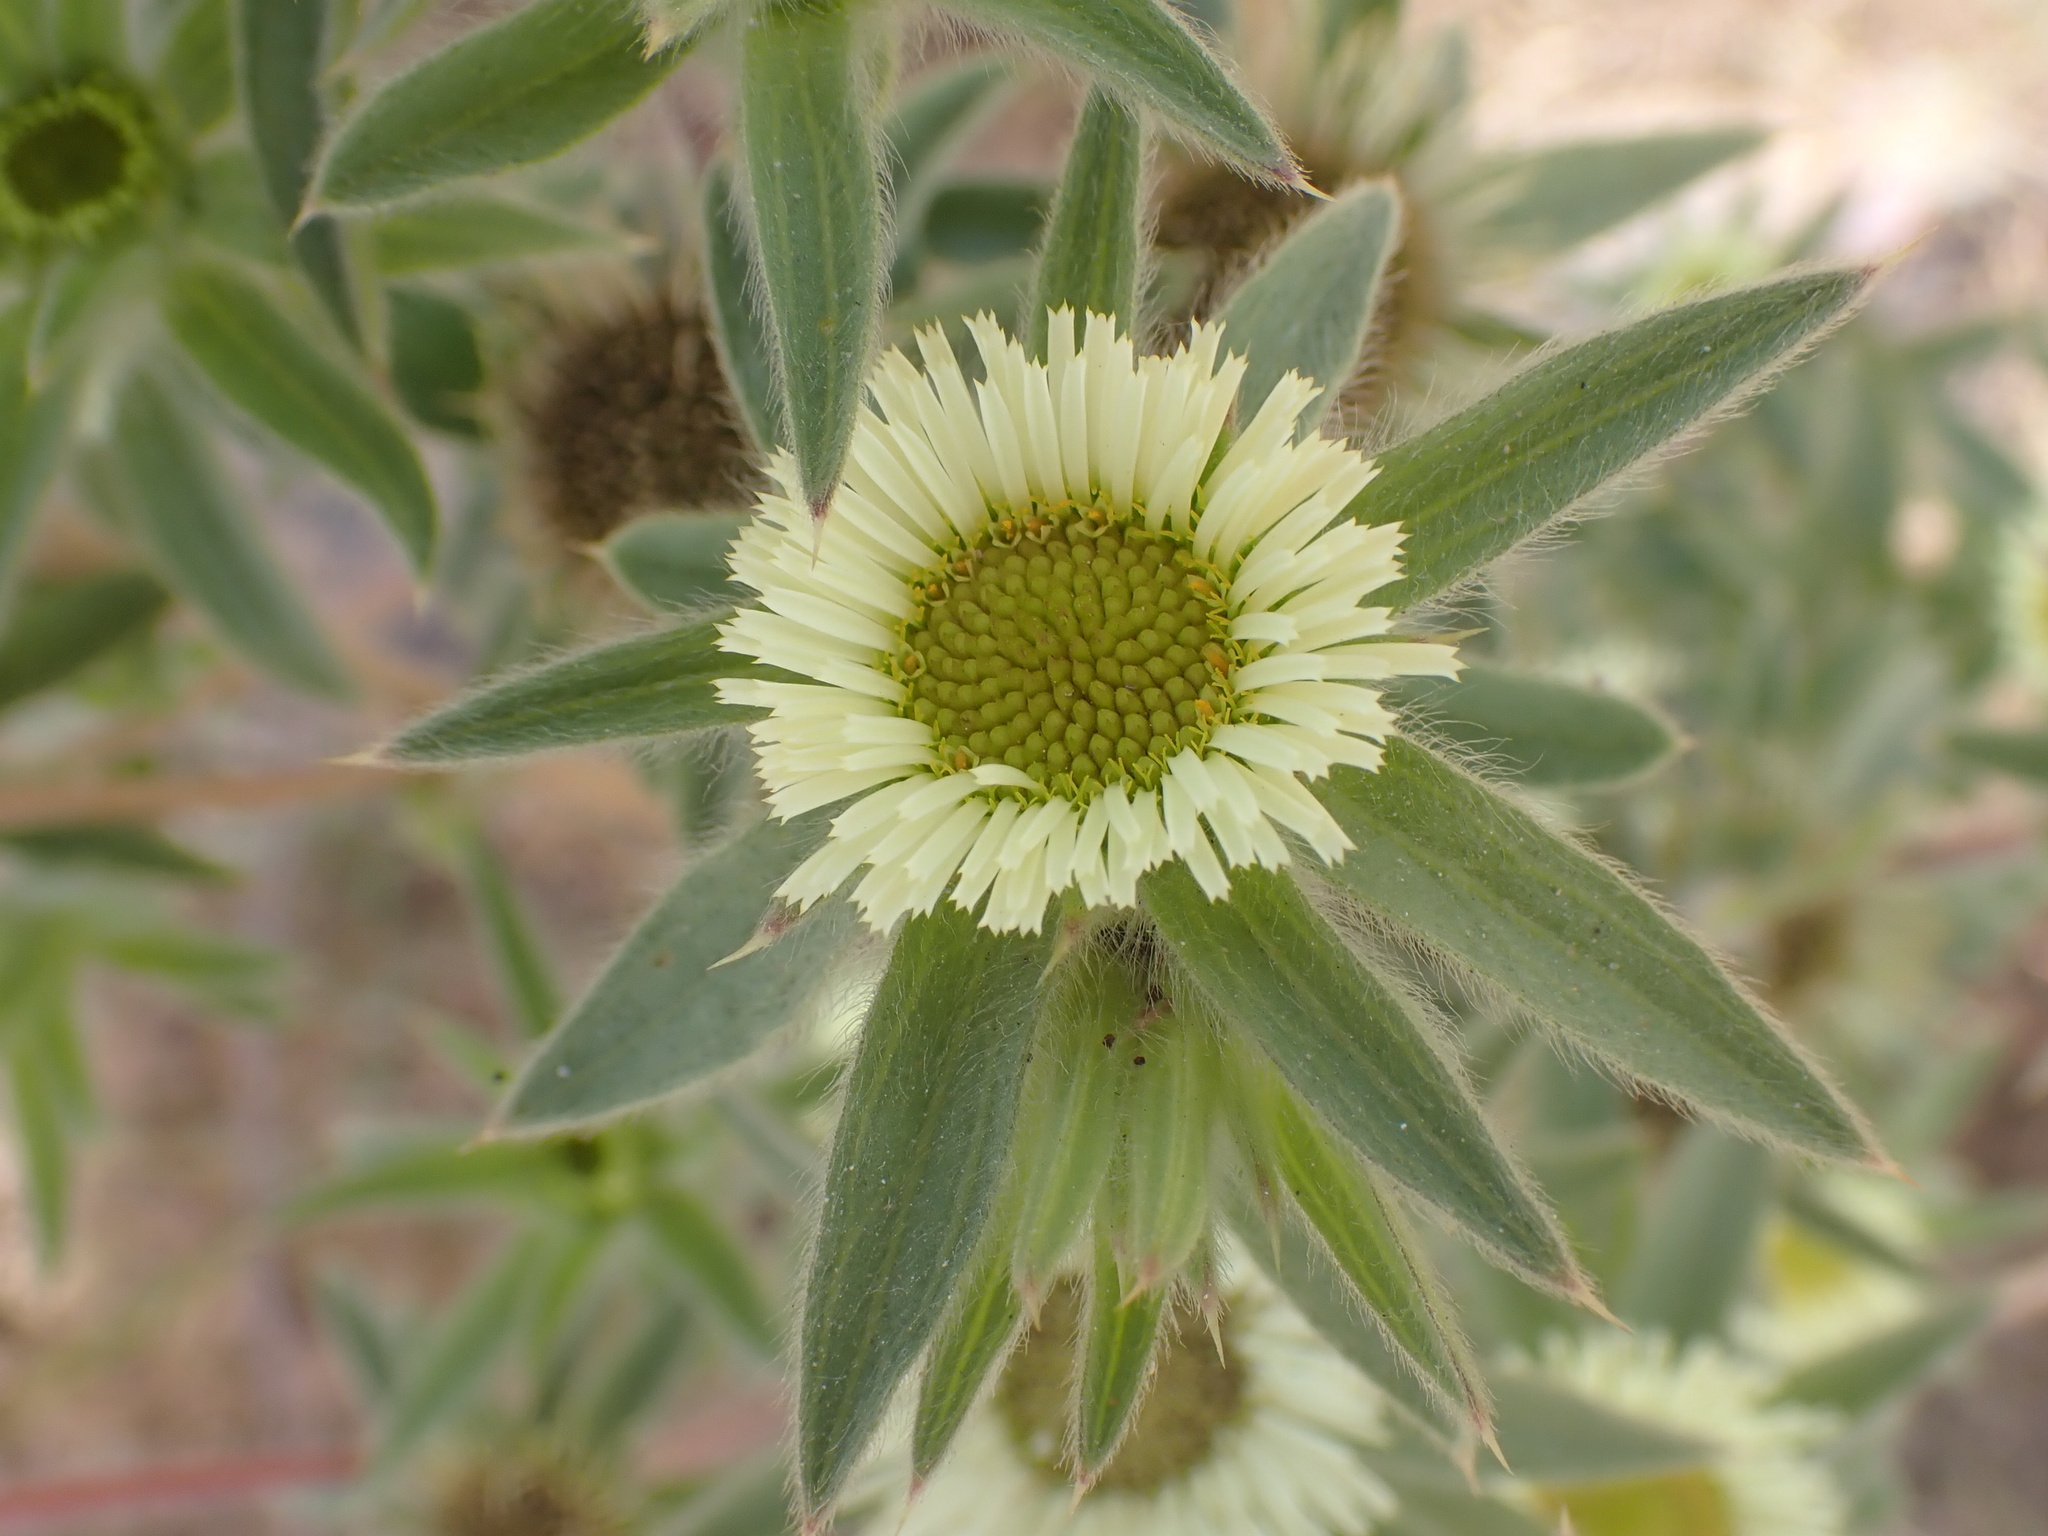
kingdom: Plantae
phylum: Tracheophyta
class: Magnoliopsida
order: Asterales
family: Asteraceae
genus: Pallenis
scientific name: Pallenis spinosa
